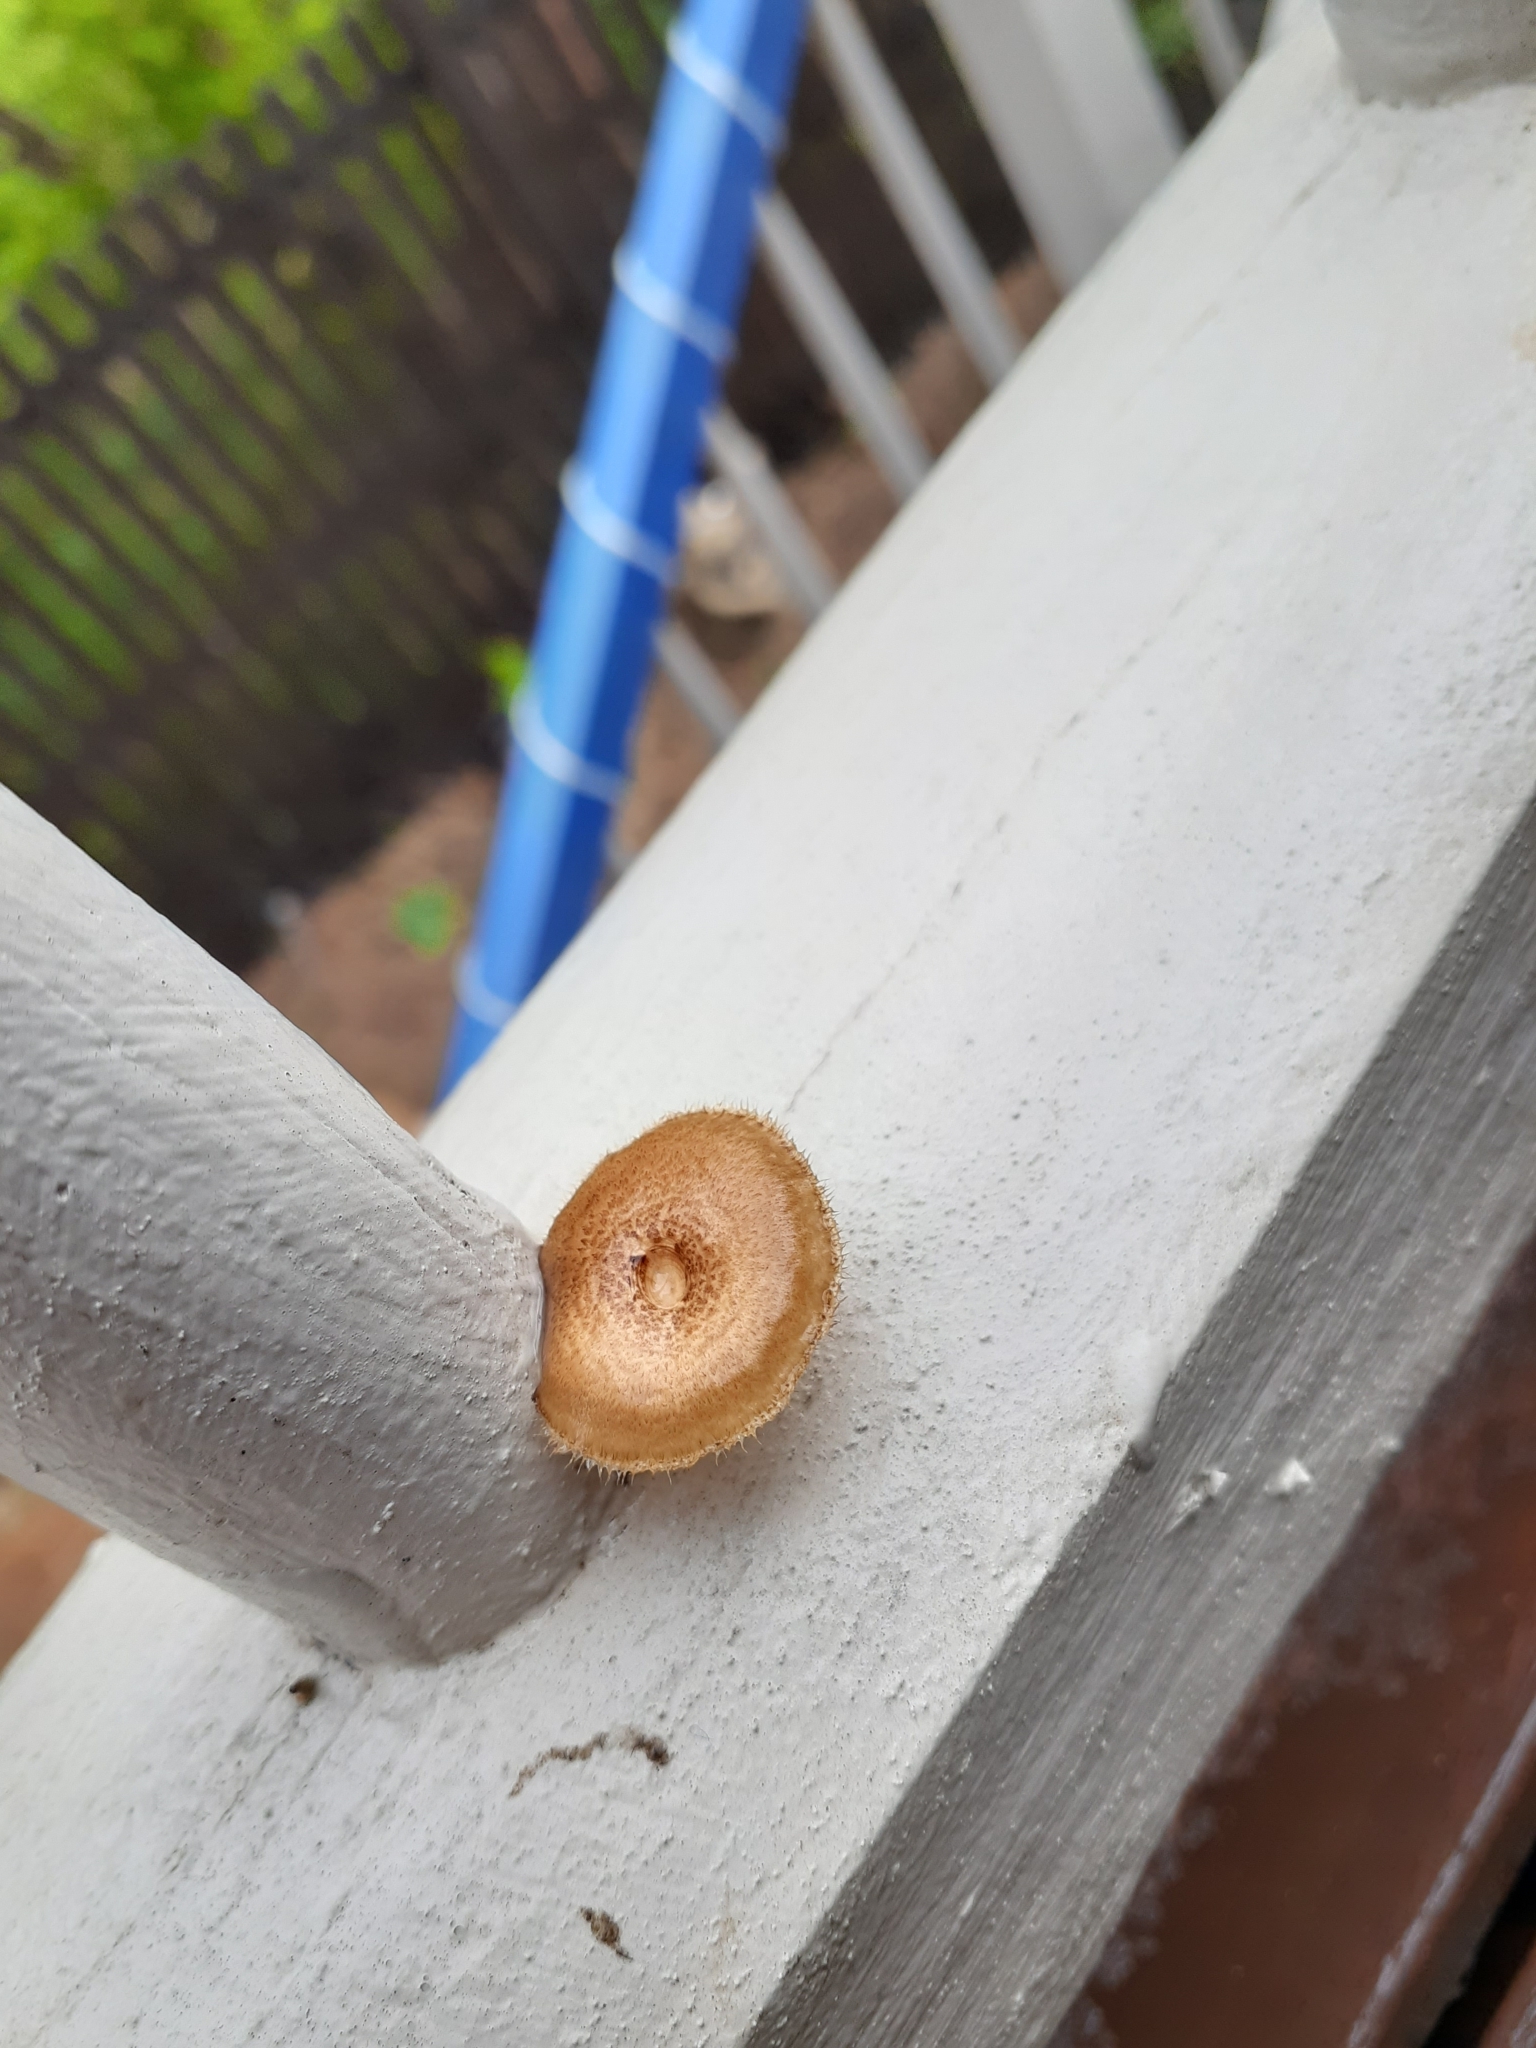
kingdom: Fungi
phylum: Basidiomycota
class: Agaricomycetes
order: Polyporales
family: Polyporaceae
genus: Lentinus
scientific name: Lentinus arcularius
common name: Spring polypore
